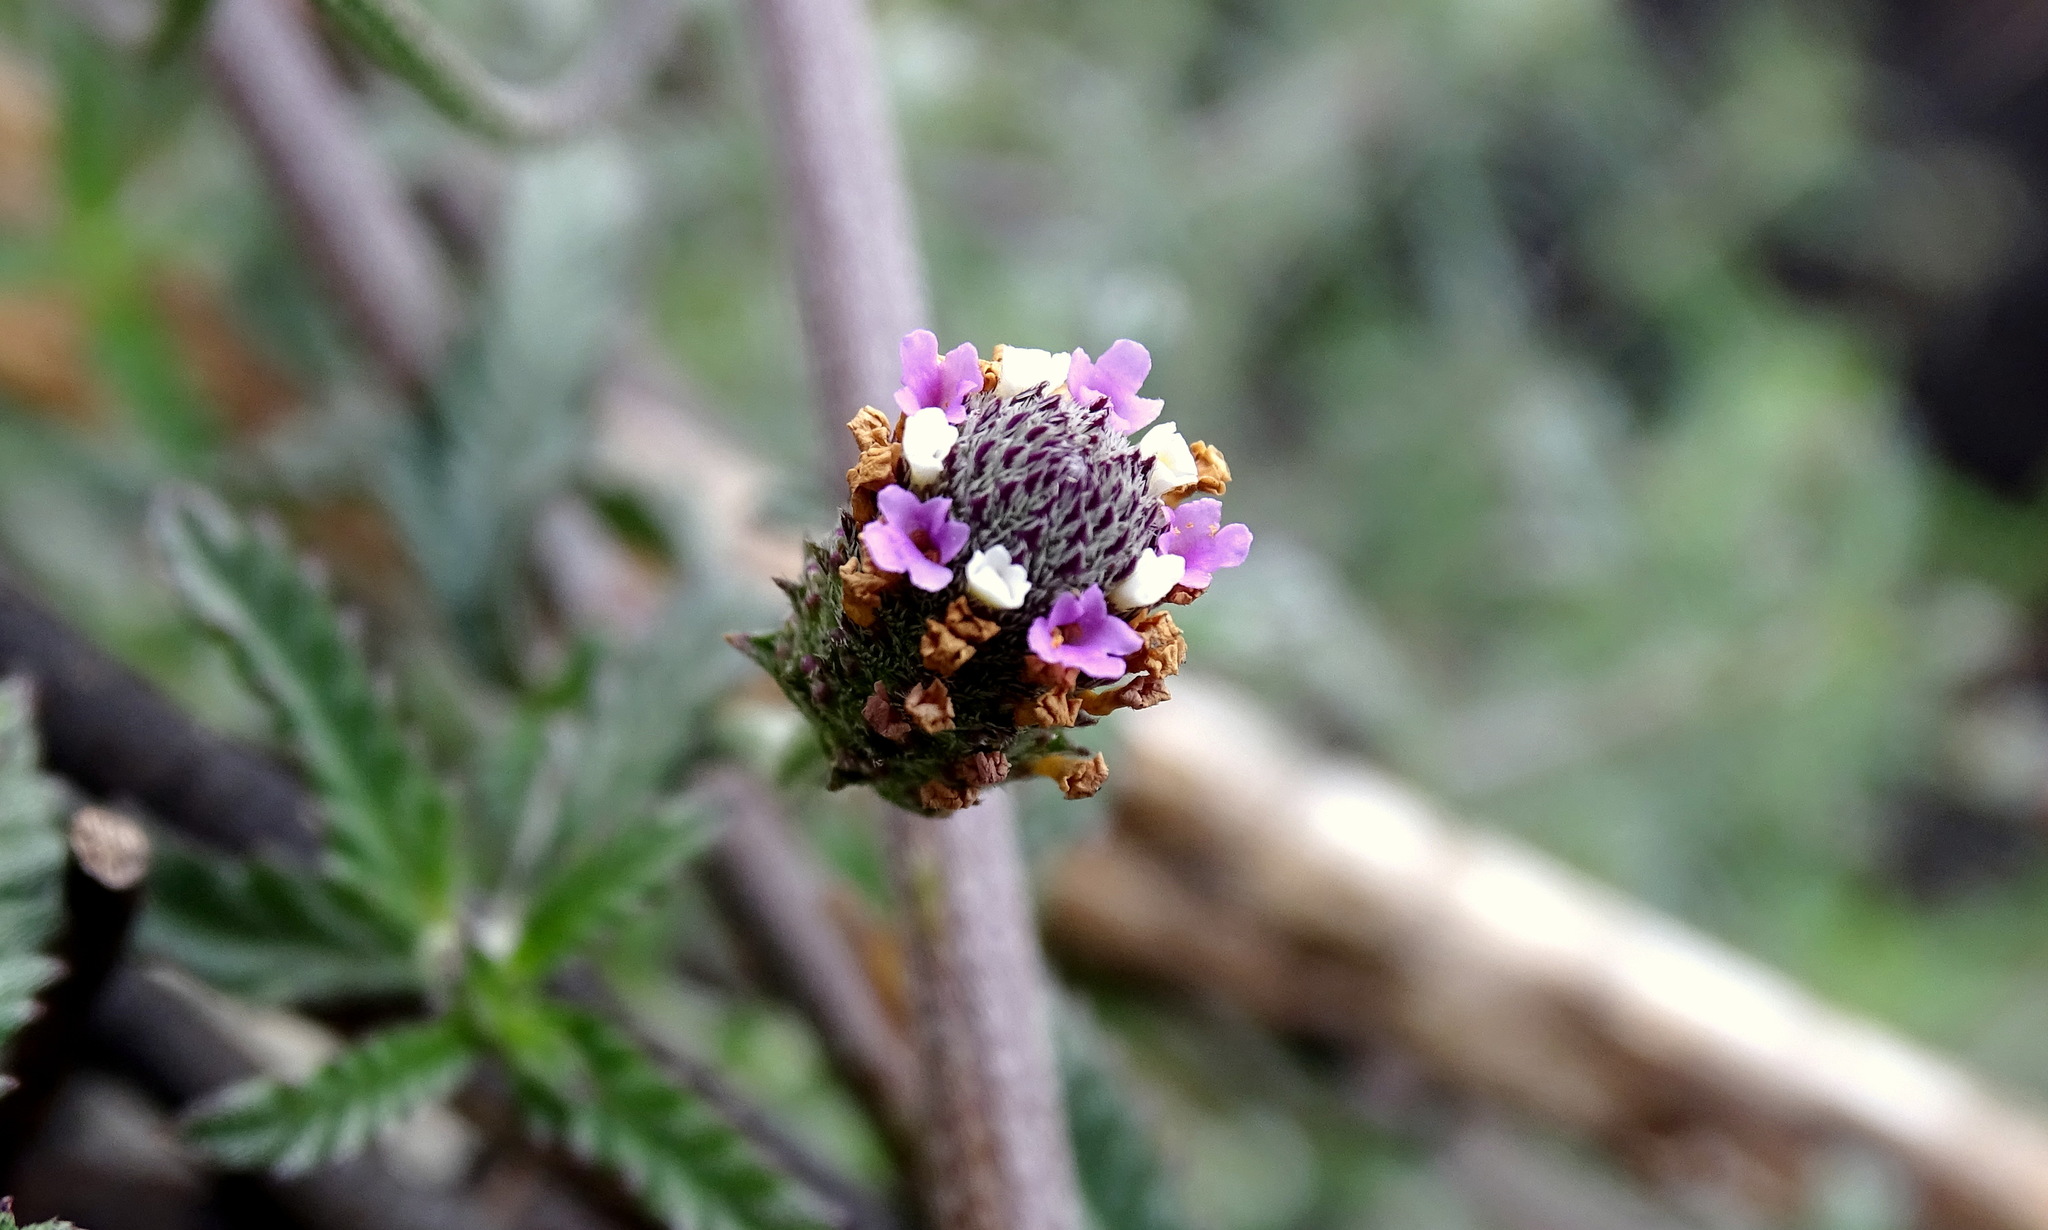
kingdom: Plantae
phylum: Tracheophyta
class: Magnoliopsida
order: Lamiales
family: Verbenaceae
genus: Lippia
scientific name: Lippia stoechadifolia
